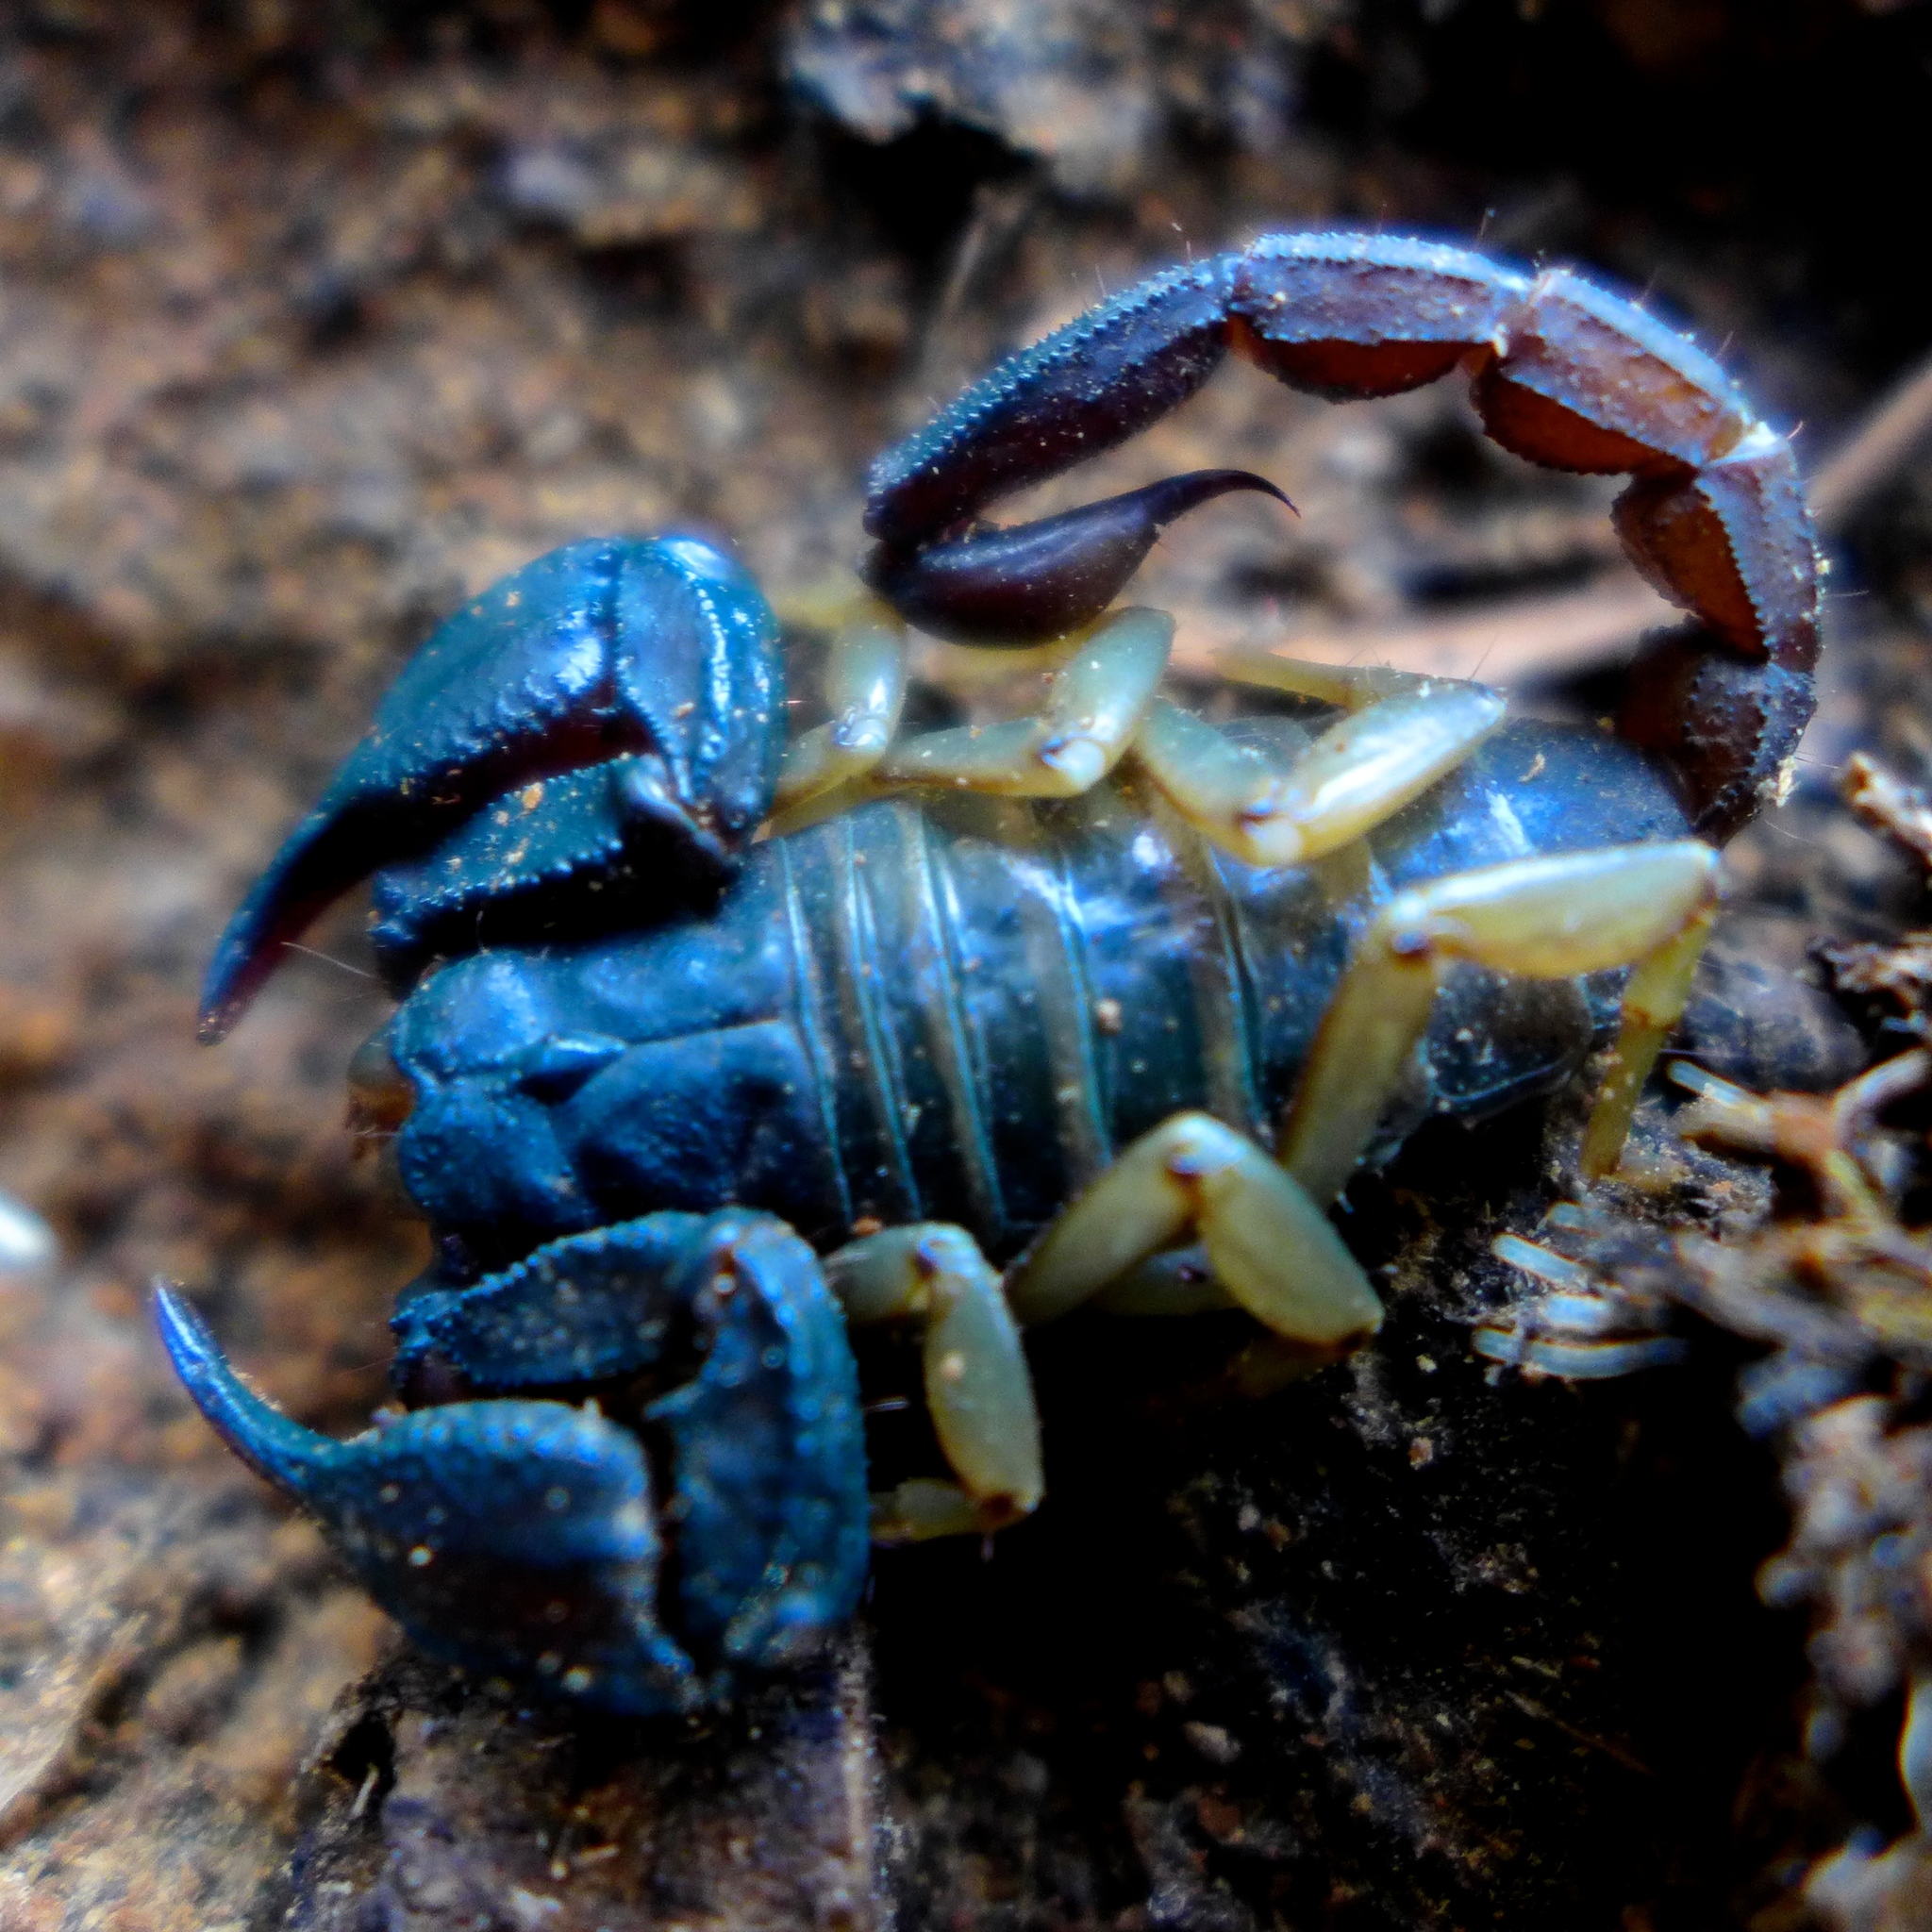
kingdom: Animalia
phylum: Arthropoda
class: Arachnida
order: Scorpiones
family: Chactidae
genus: Uroctonus
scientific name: Uroctonus mordax
